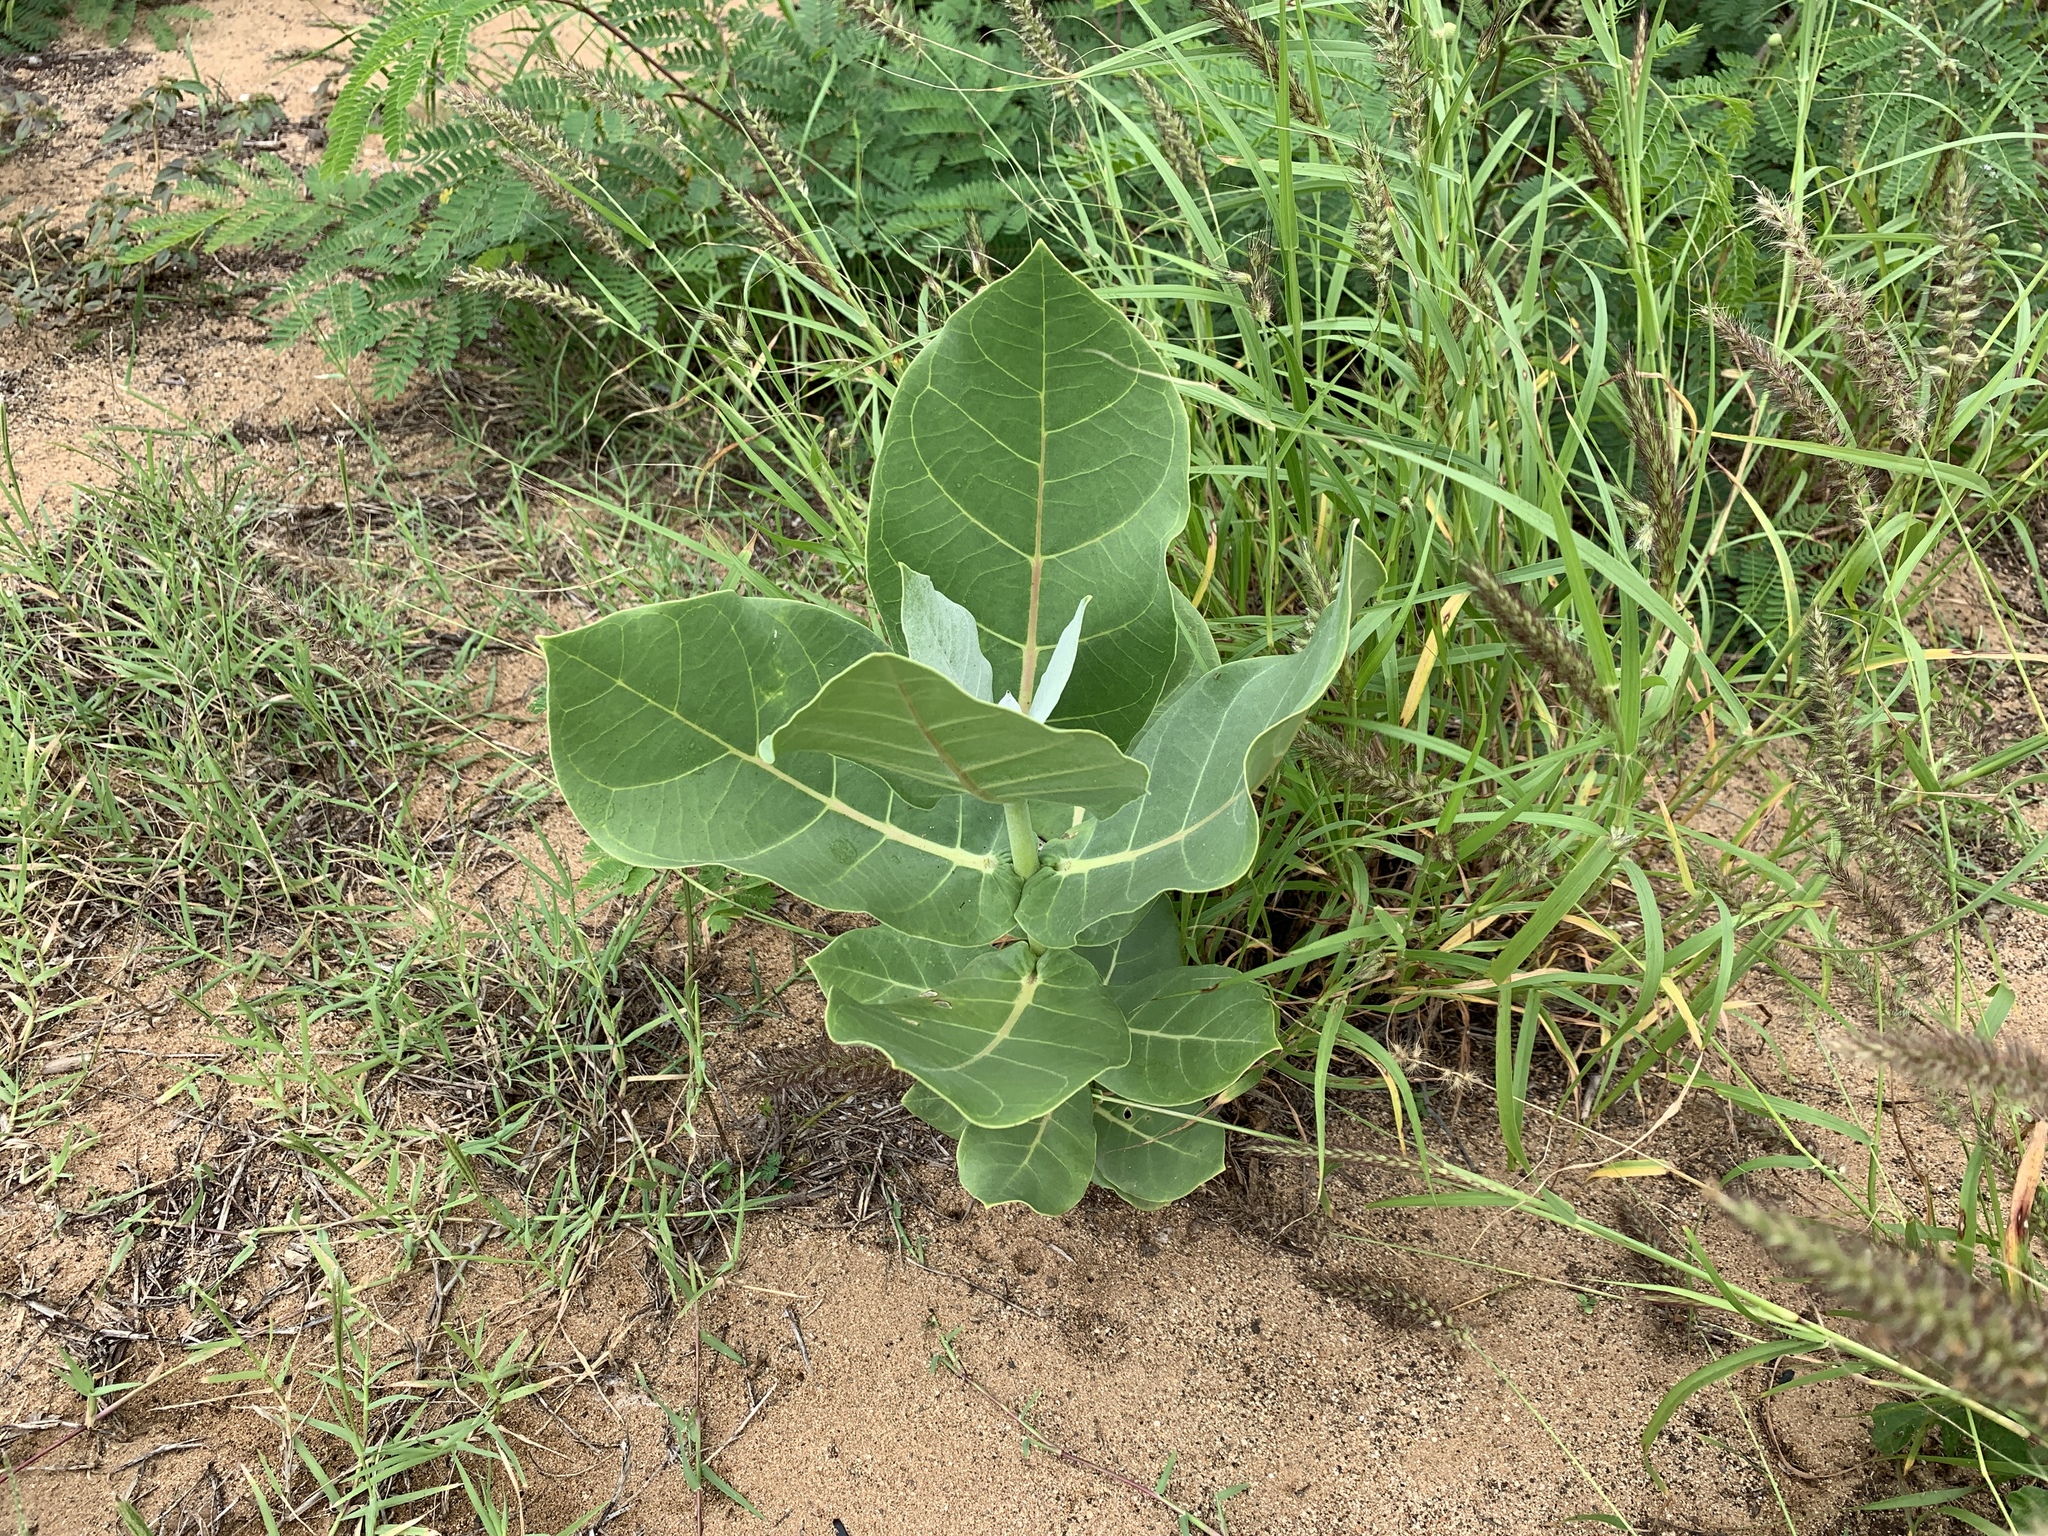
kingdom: Plantae
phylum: Tracheophyta
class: Magnoliopsida
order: Gentianales
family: Apocynaceae
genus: Calotropis
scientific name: Calotropis procera
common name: Roostertree
